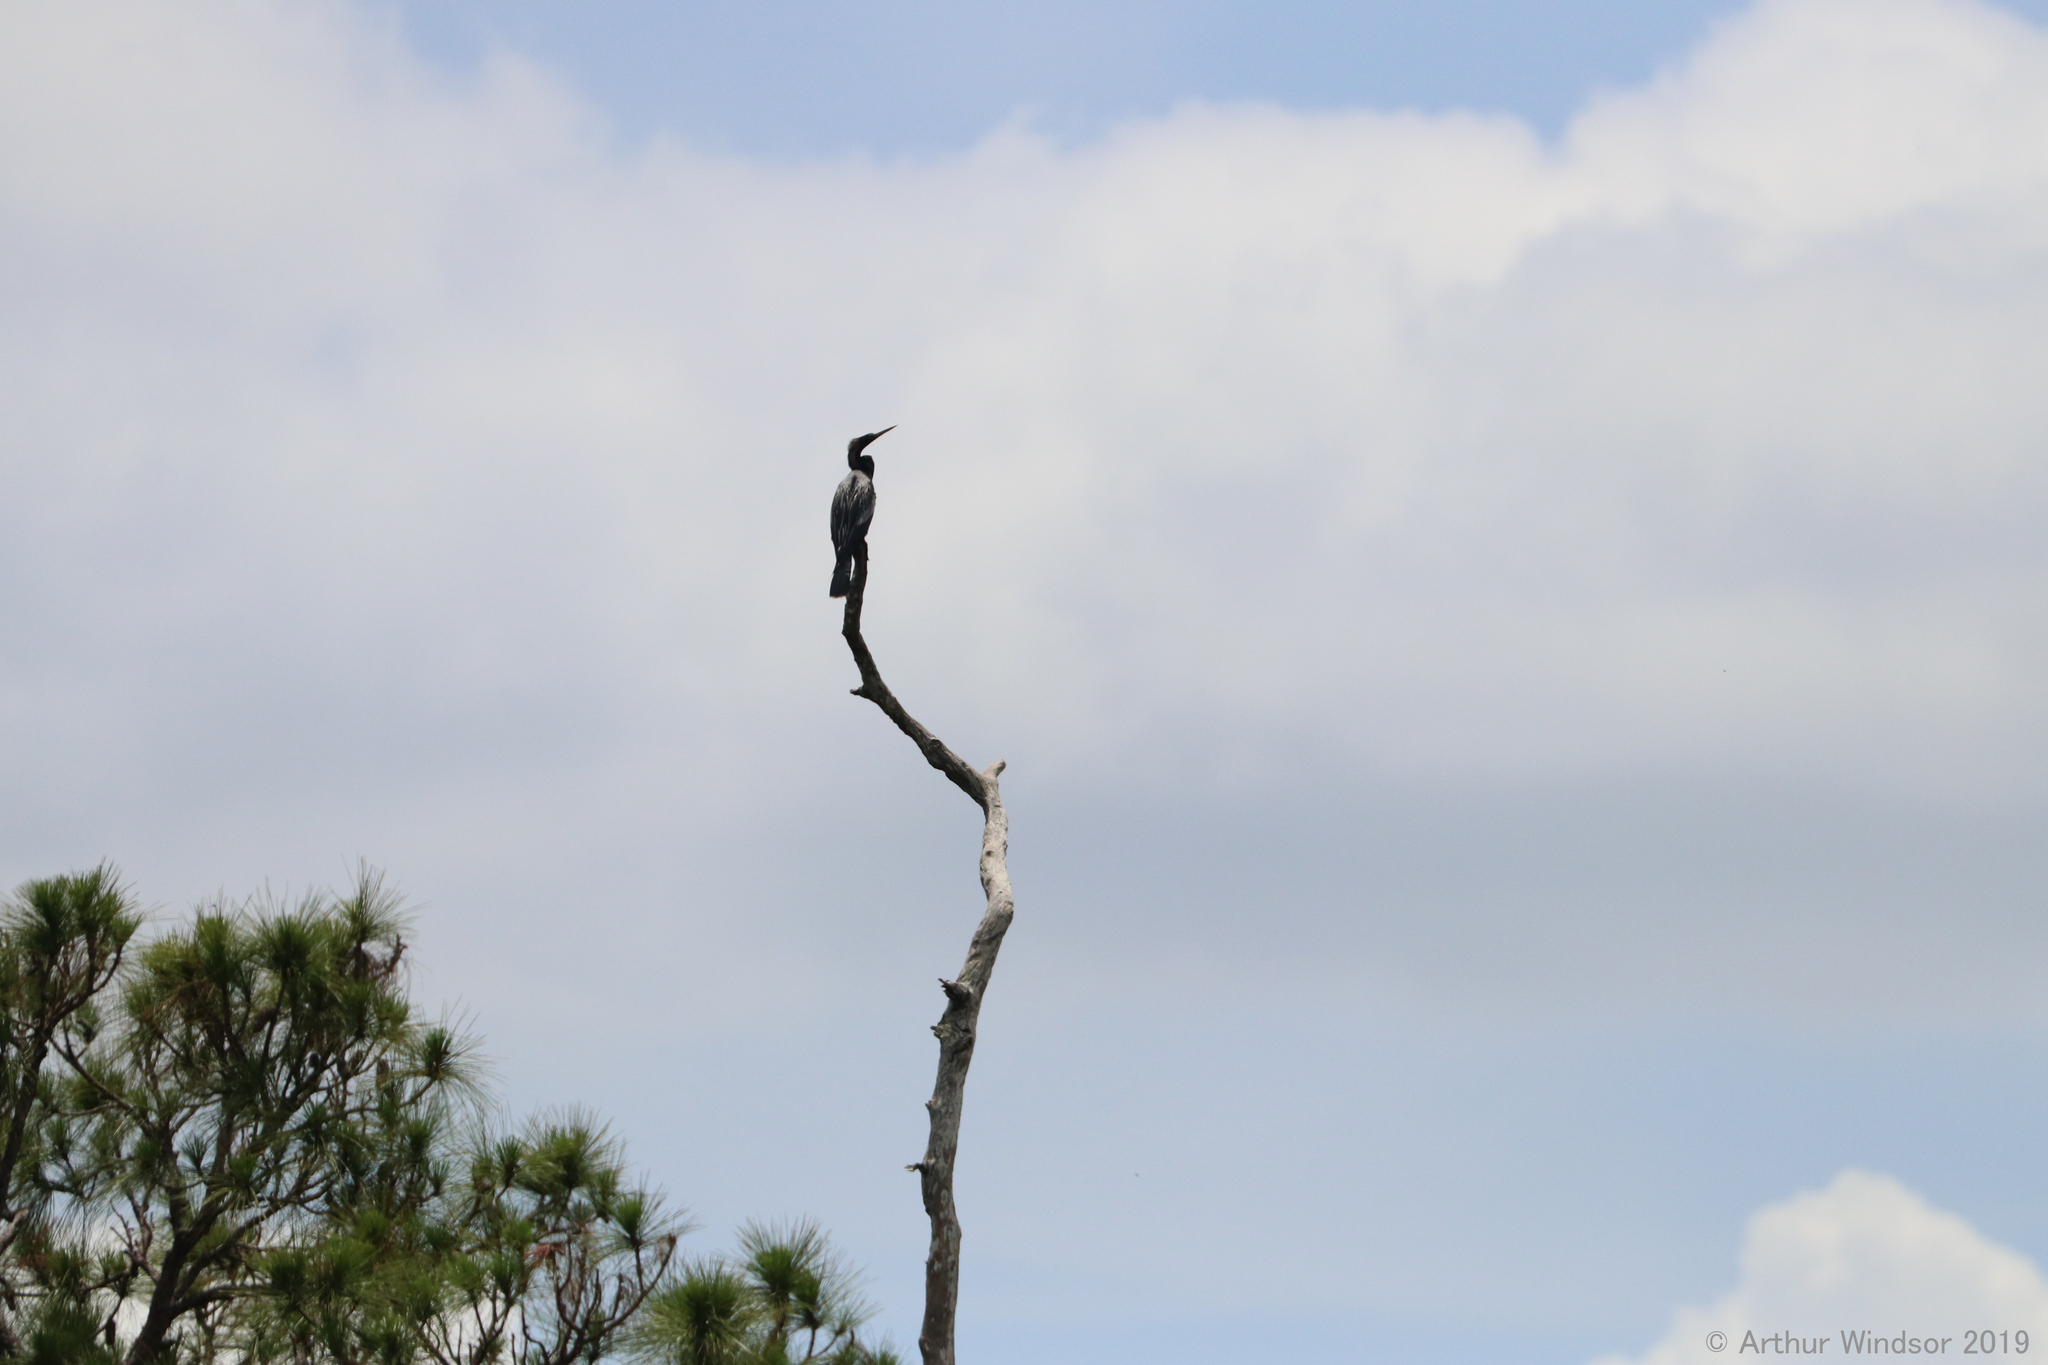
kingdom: Animalia
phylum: Chordata
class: Aves
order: Suliformes
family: Anhingidae
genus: Anhinga
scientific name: Anhinga anhinga
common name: Anhinga
